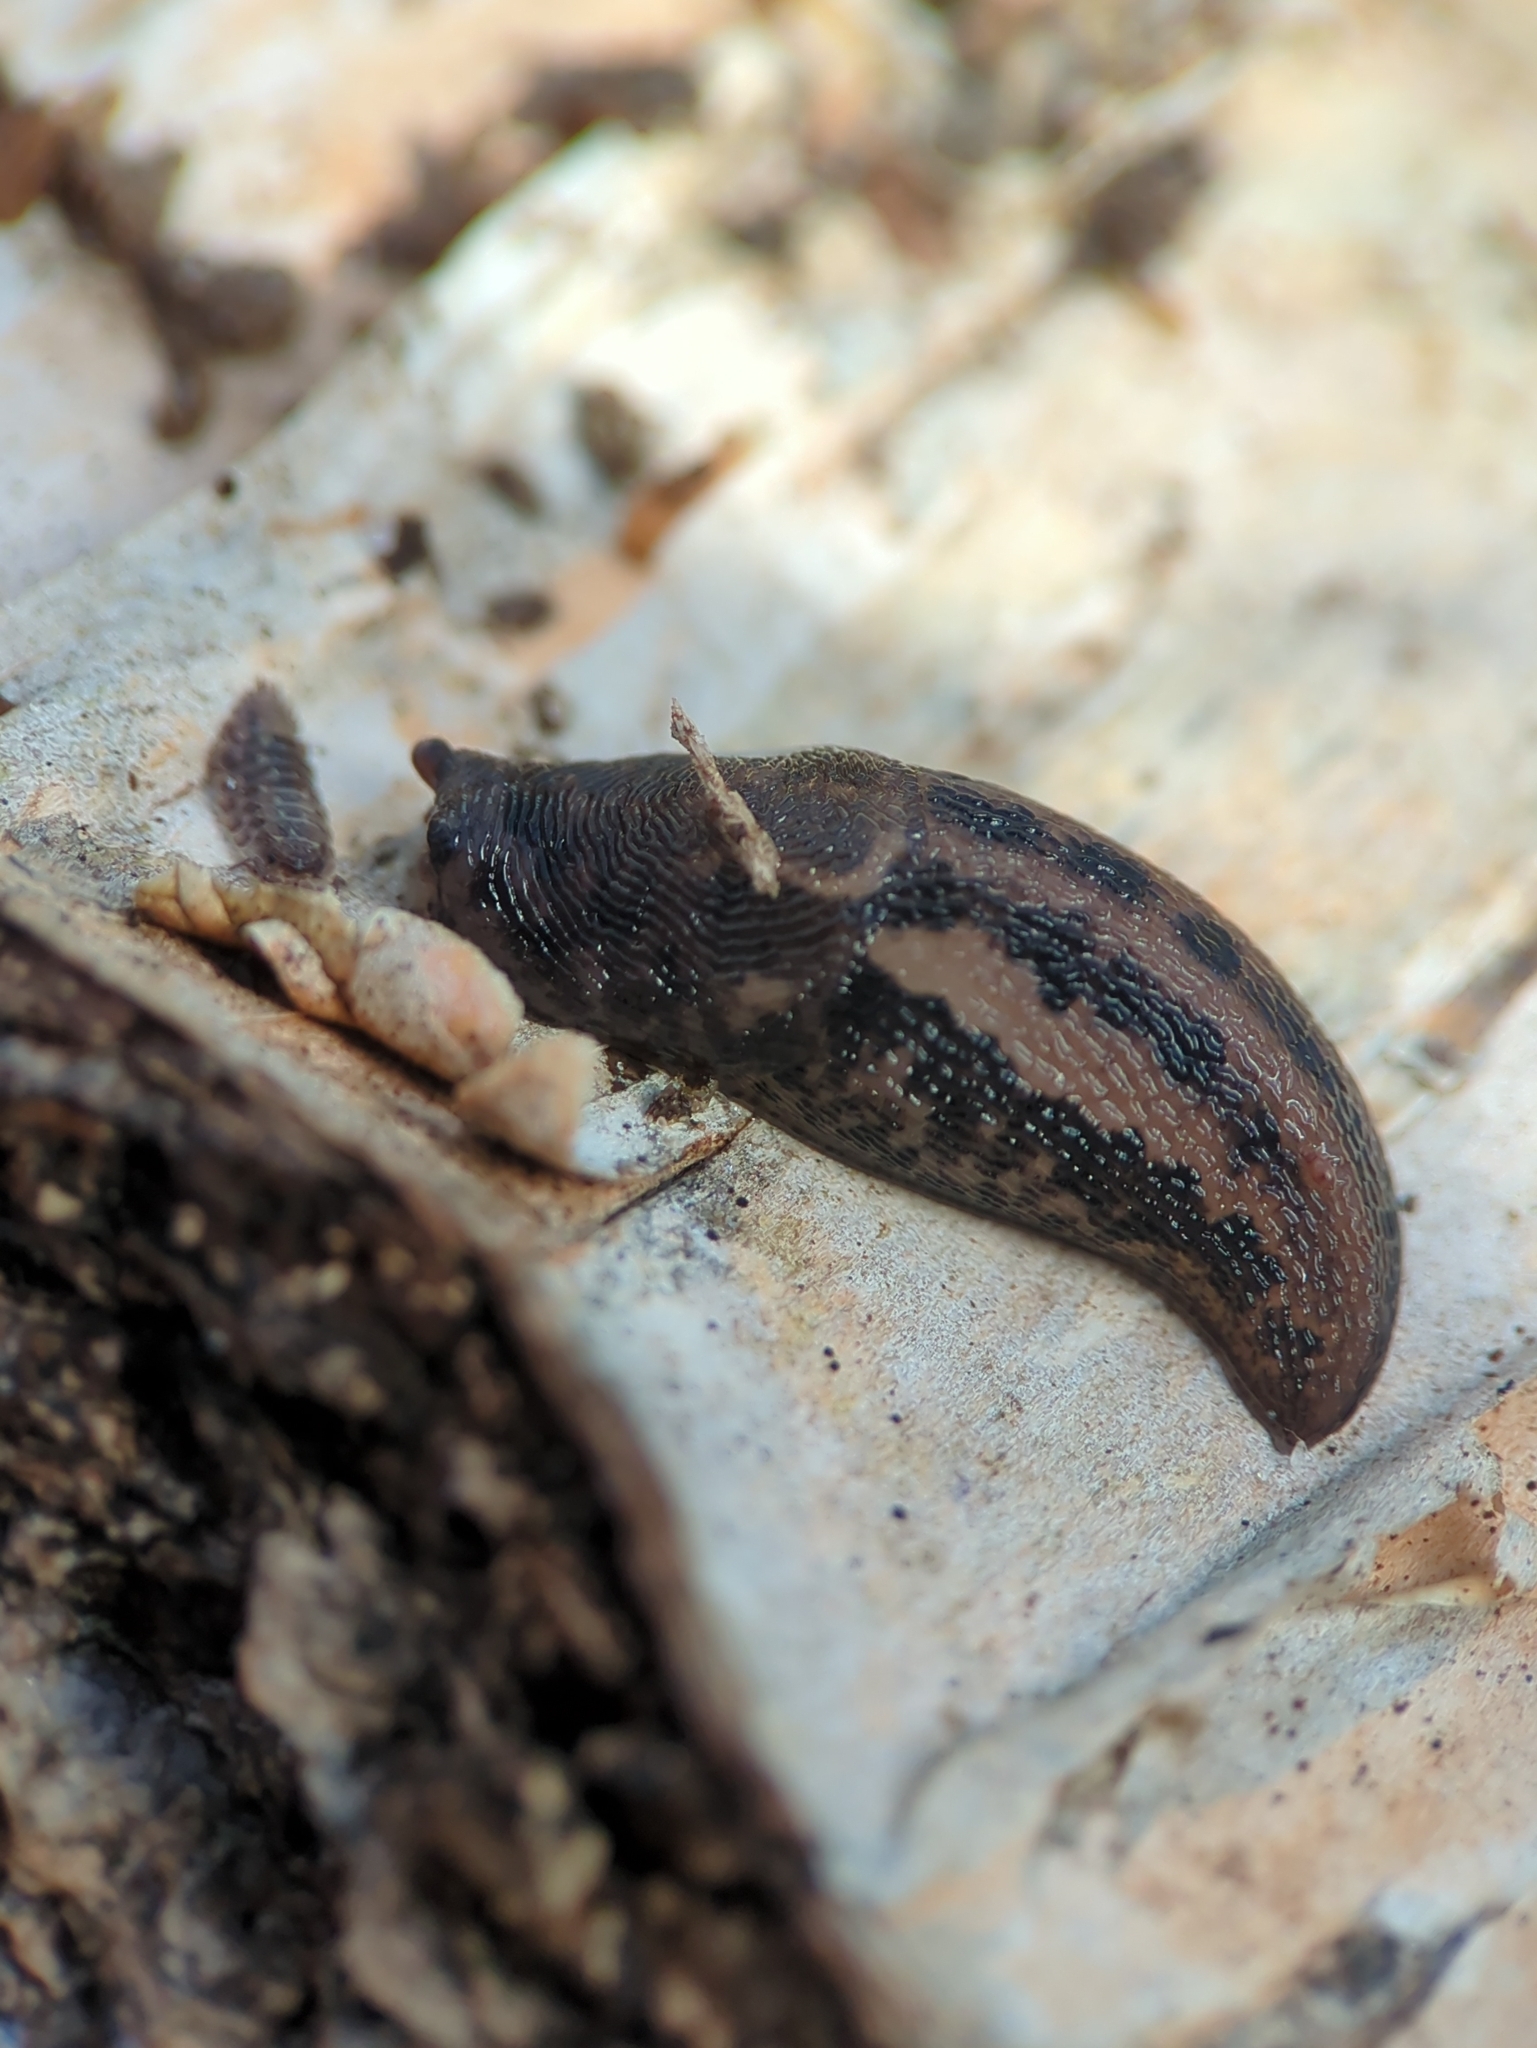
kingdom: Animalia
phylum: Mollusca
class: Gastropoda
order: Stylommatophora
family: Limacidae
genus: Limax
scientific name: Limax maximus
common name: Great grey slug
